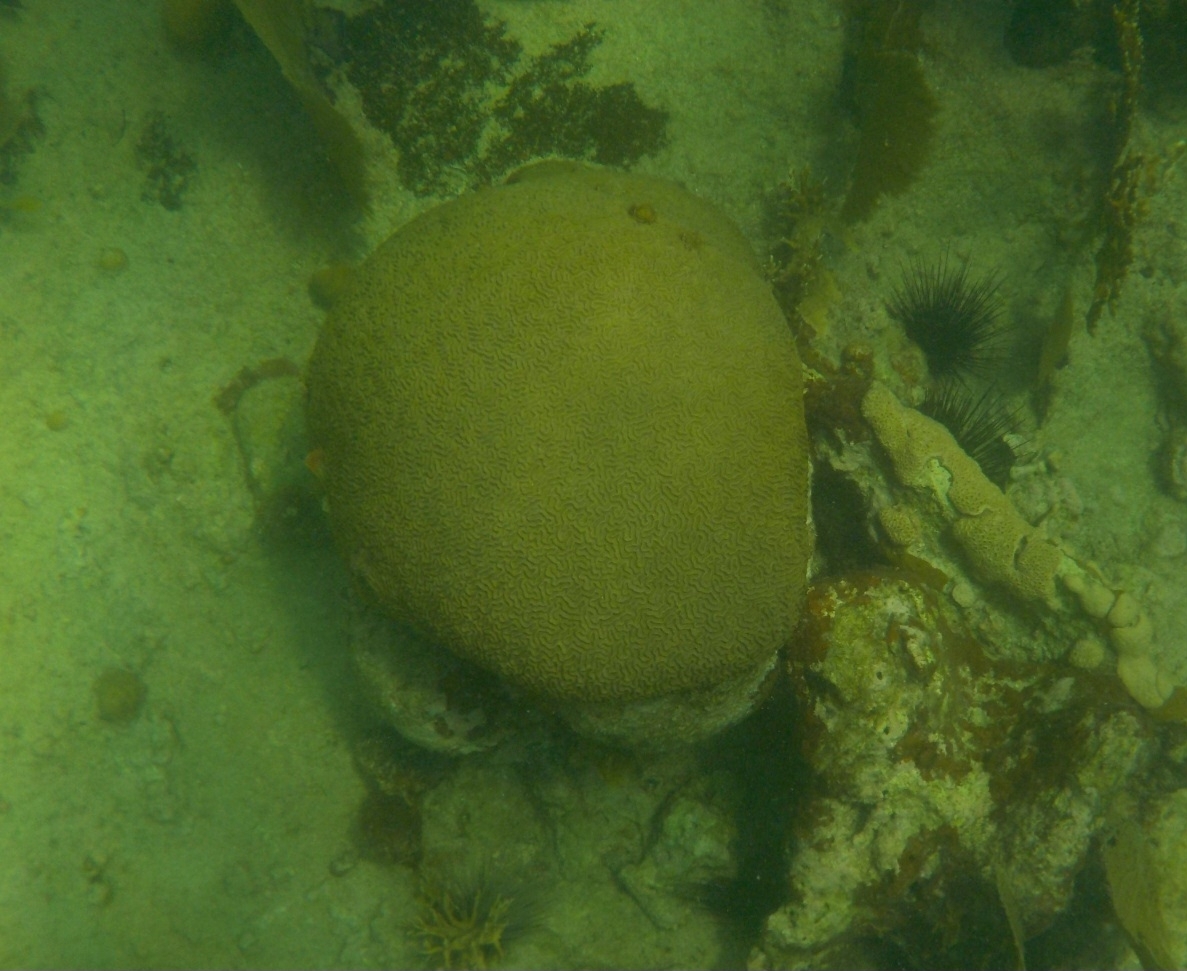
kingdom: Animalia
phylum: Cnidaria
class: Anthozoa
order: Scleractinia
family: Faviidae
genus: Pseudodiploria
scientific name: Pseudodiploria strigosa
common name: Symmetrical brain coral
